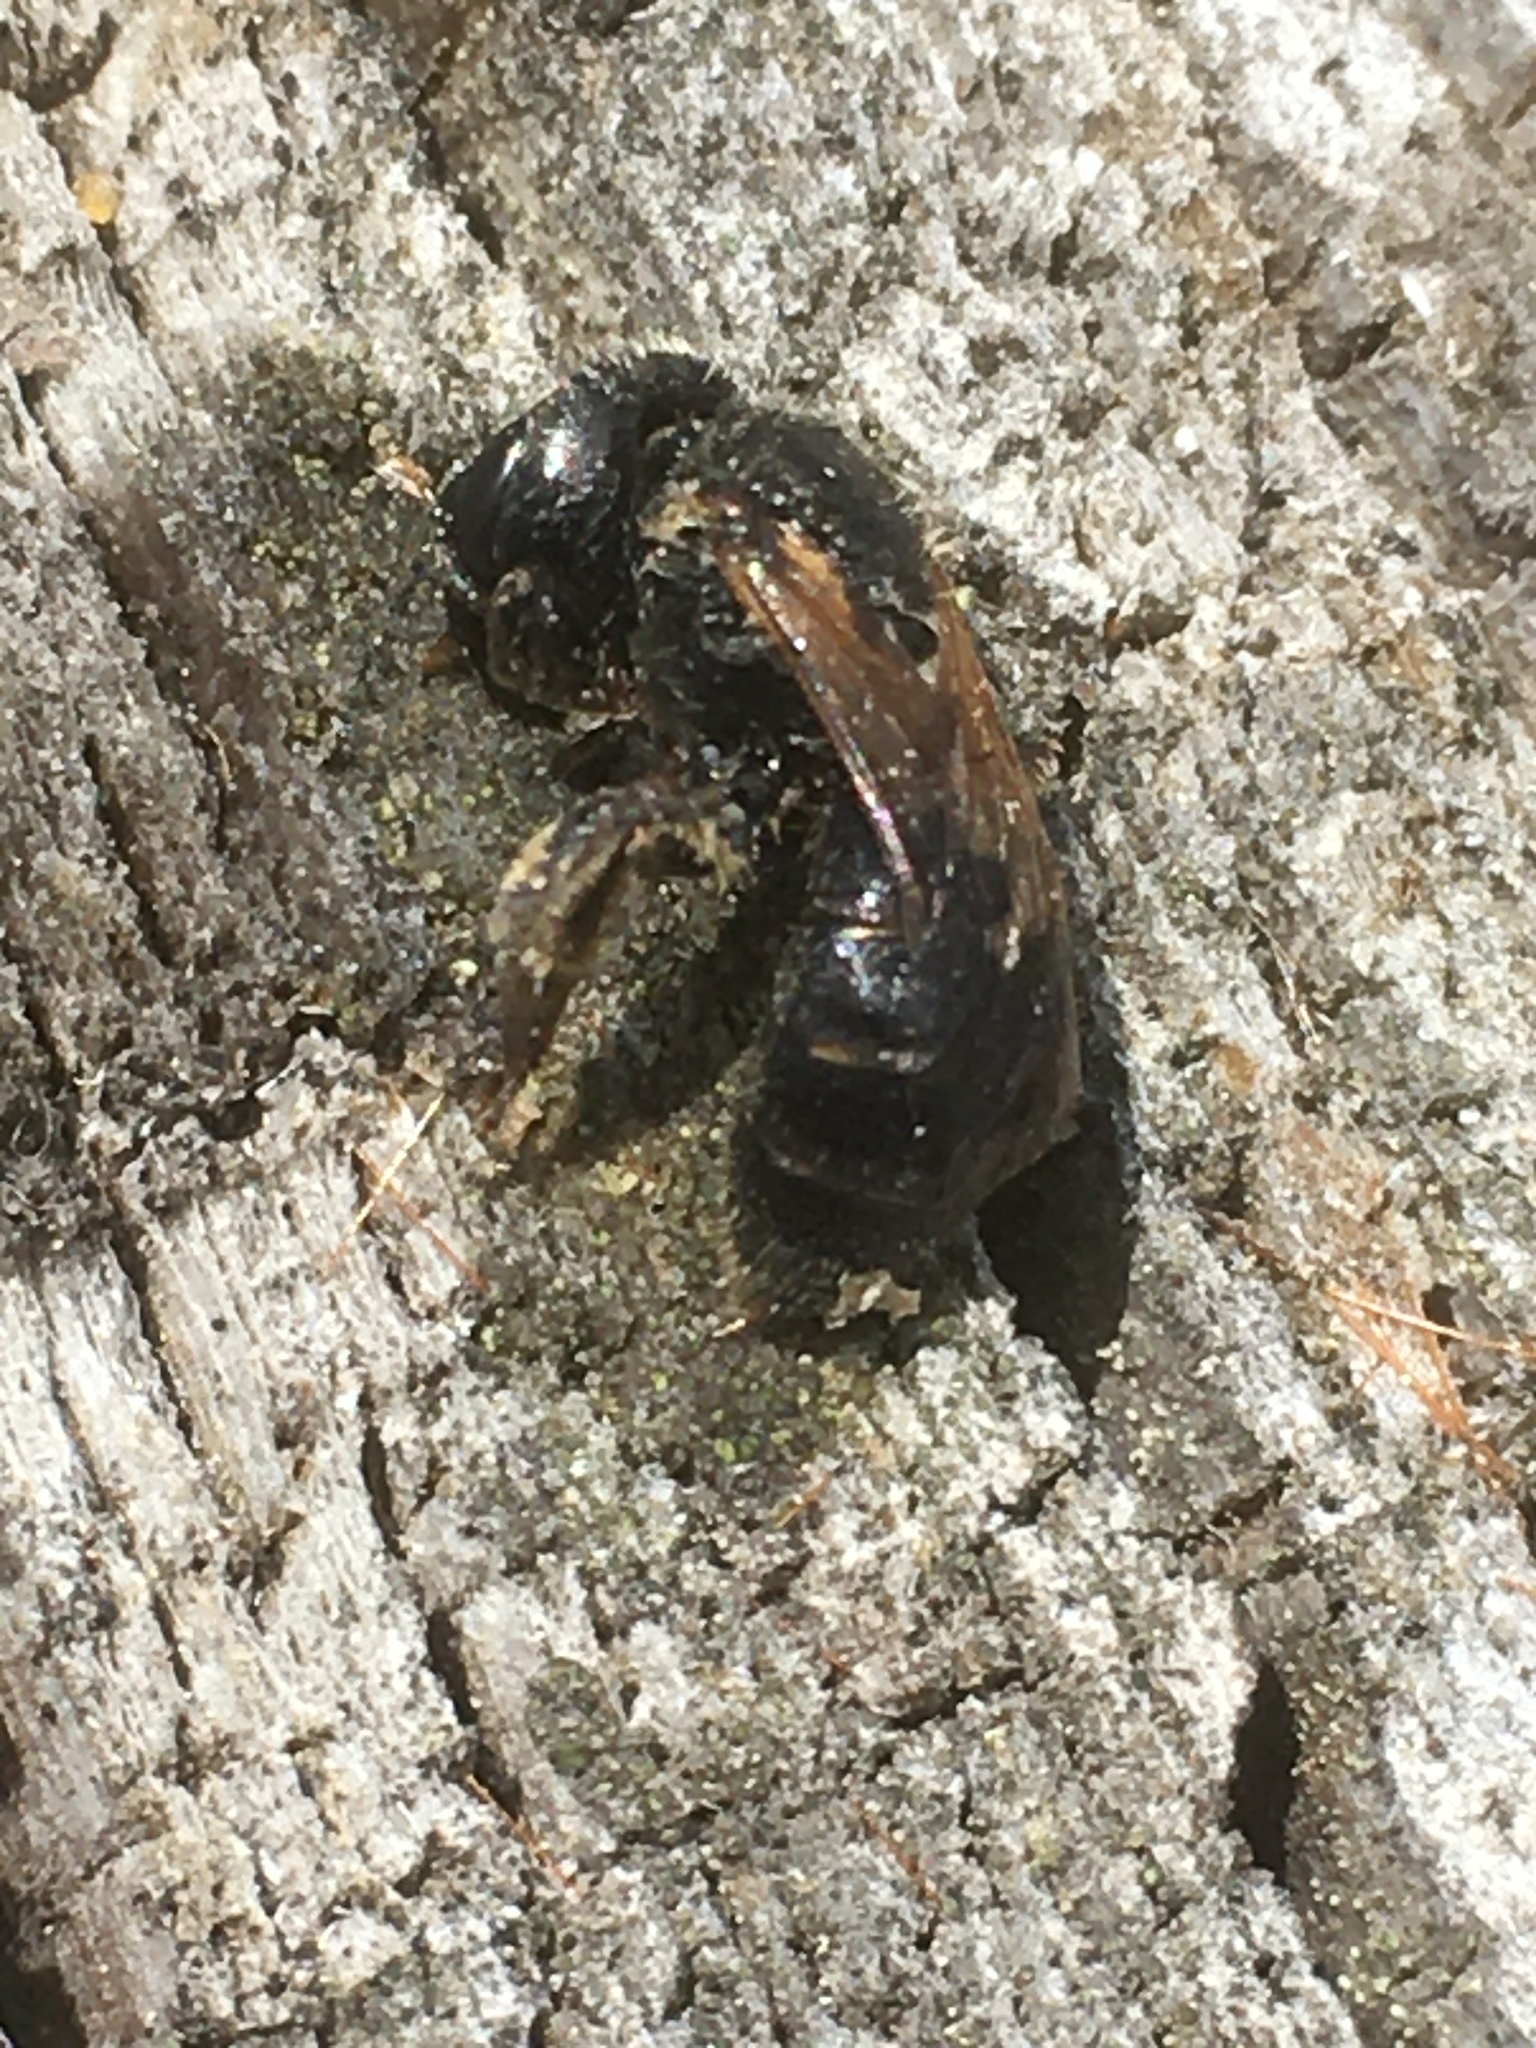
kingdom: Animalia
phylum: Arthropoda
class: Insecta
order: Hymenoptera
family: Halictidae
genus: Halictus
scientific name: Halictus ligatus
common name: Ligated furrow bee
